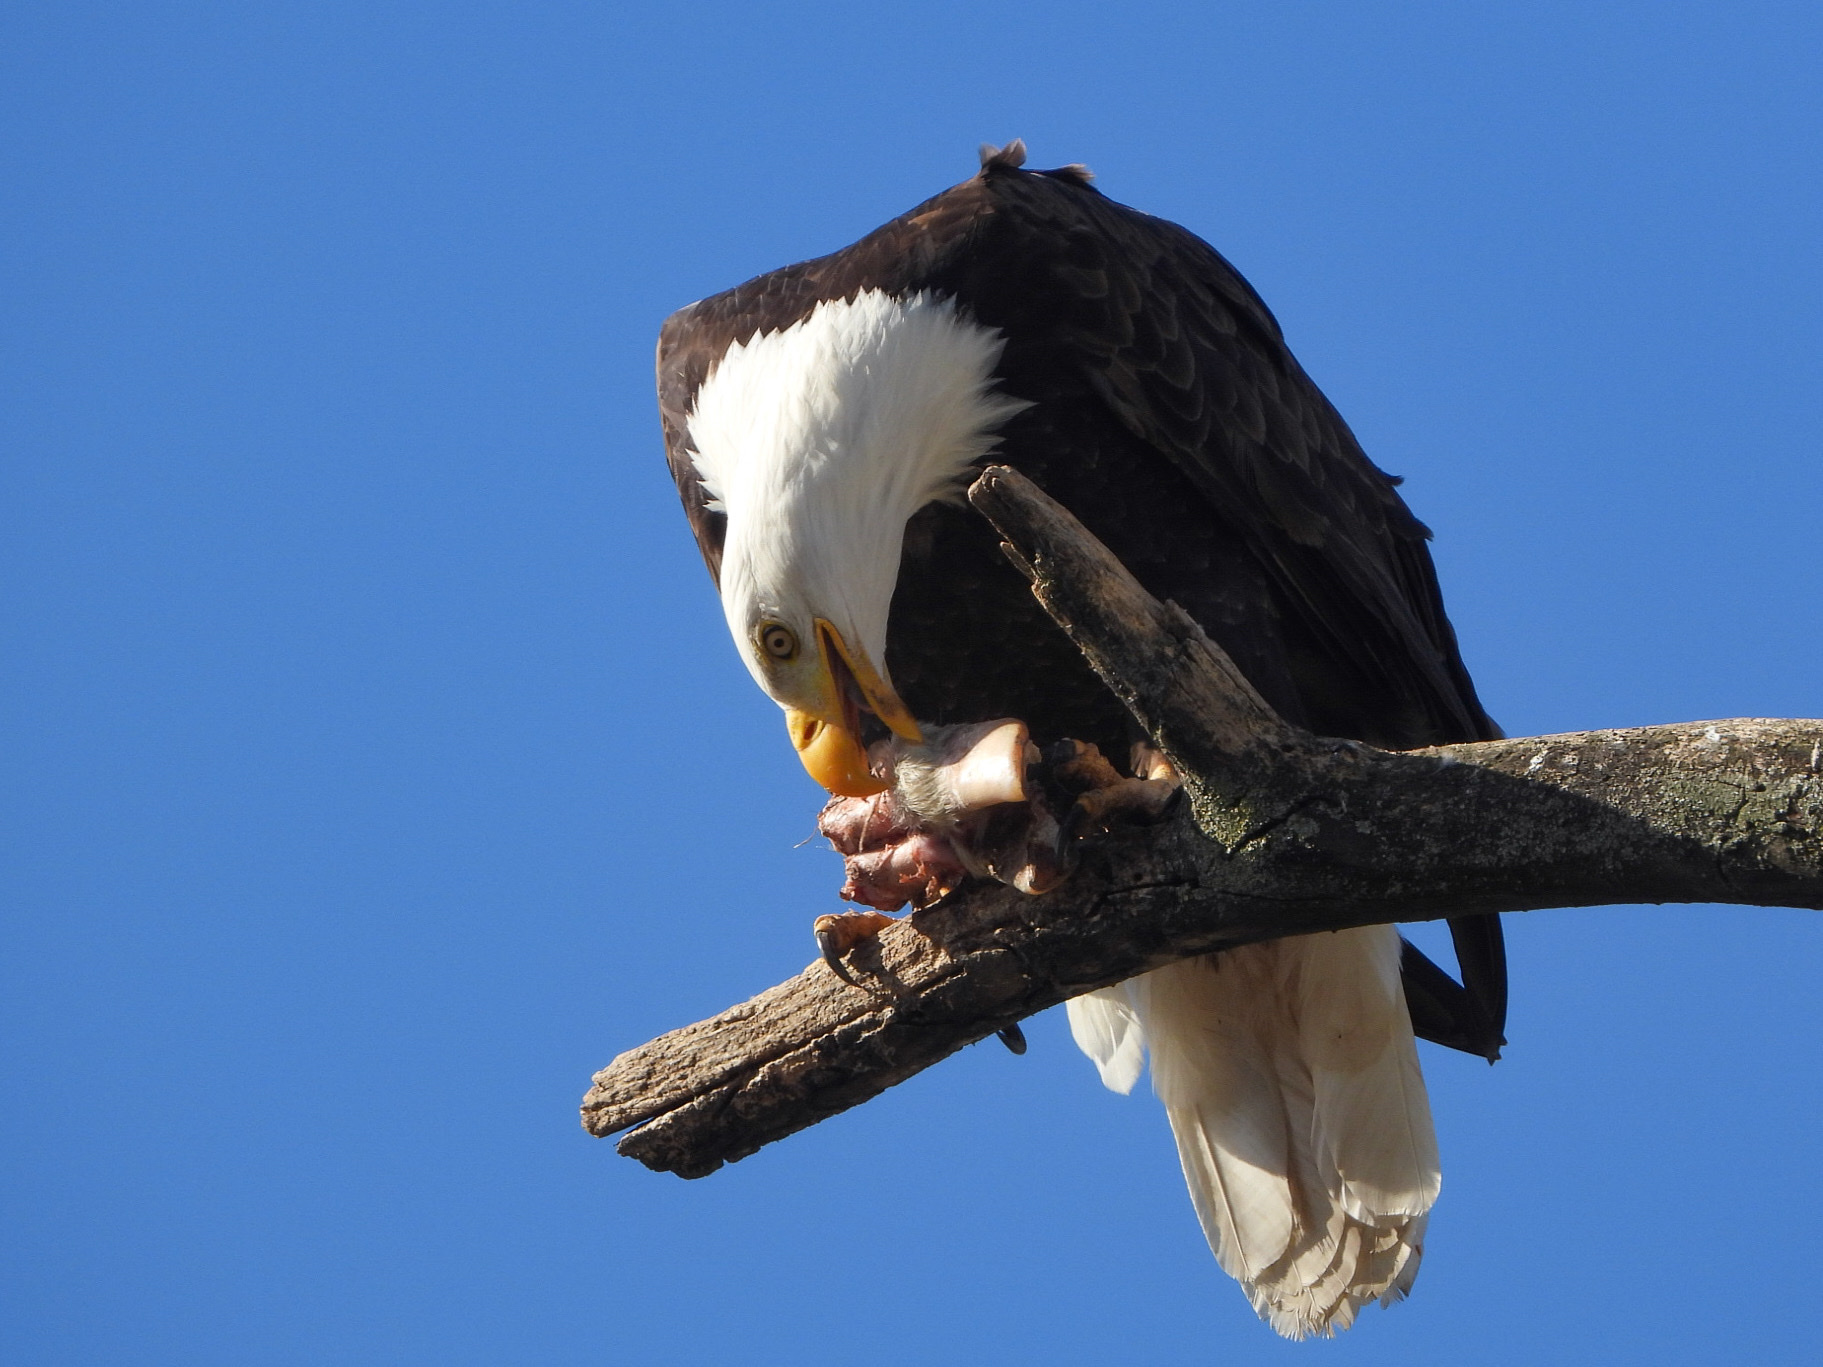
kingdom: Animalia
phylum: Chordata
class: Aves
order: Accipitriformes
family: Accipitridae
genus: Haliaeetus
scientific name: Haliaeetus leucocephalus
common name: Bald eagle
